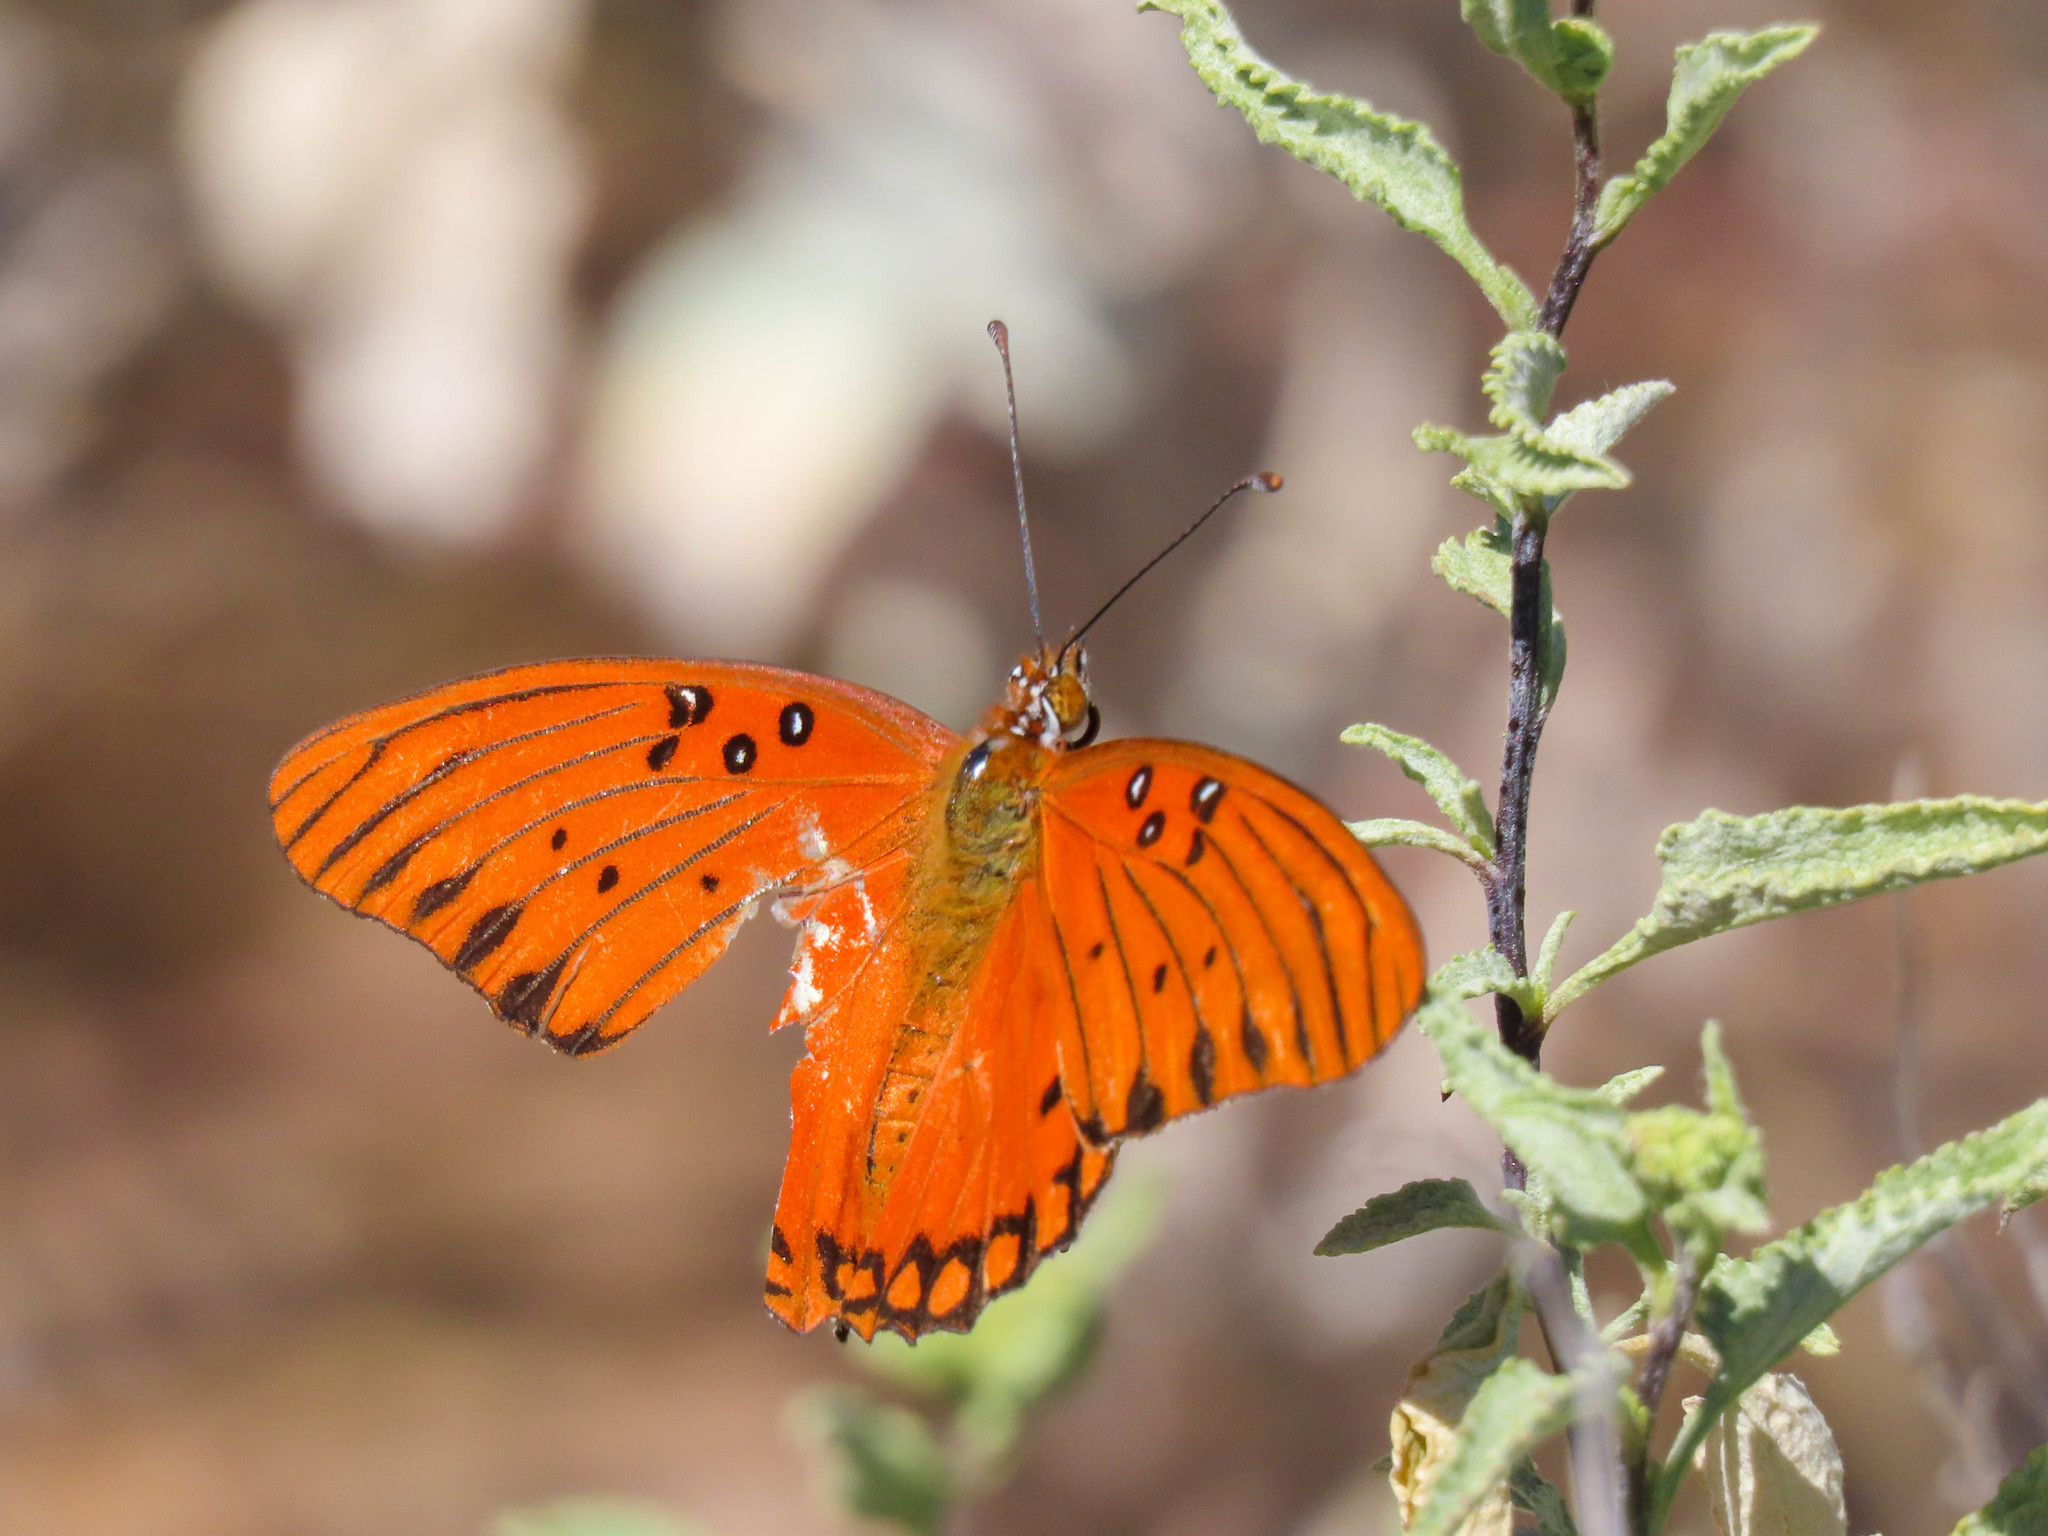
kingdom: Animalia
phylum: Arthropoda
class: Insecta
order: Lepidoptera
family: Nymphalidae
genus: Dione
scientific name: Dione vanillae
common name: Gulf fritillary
